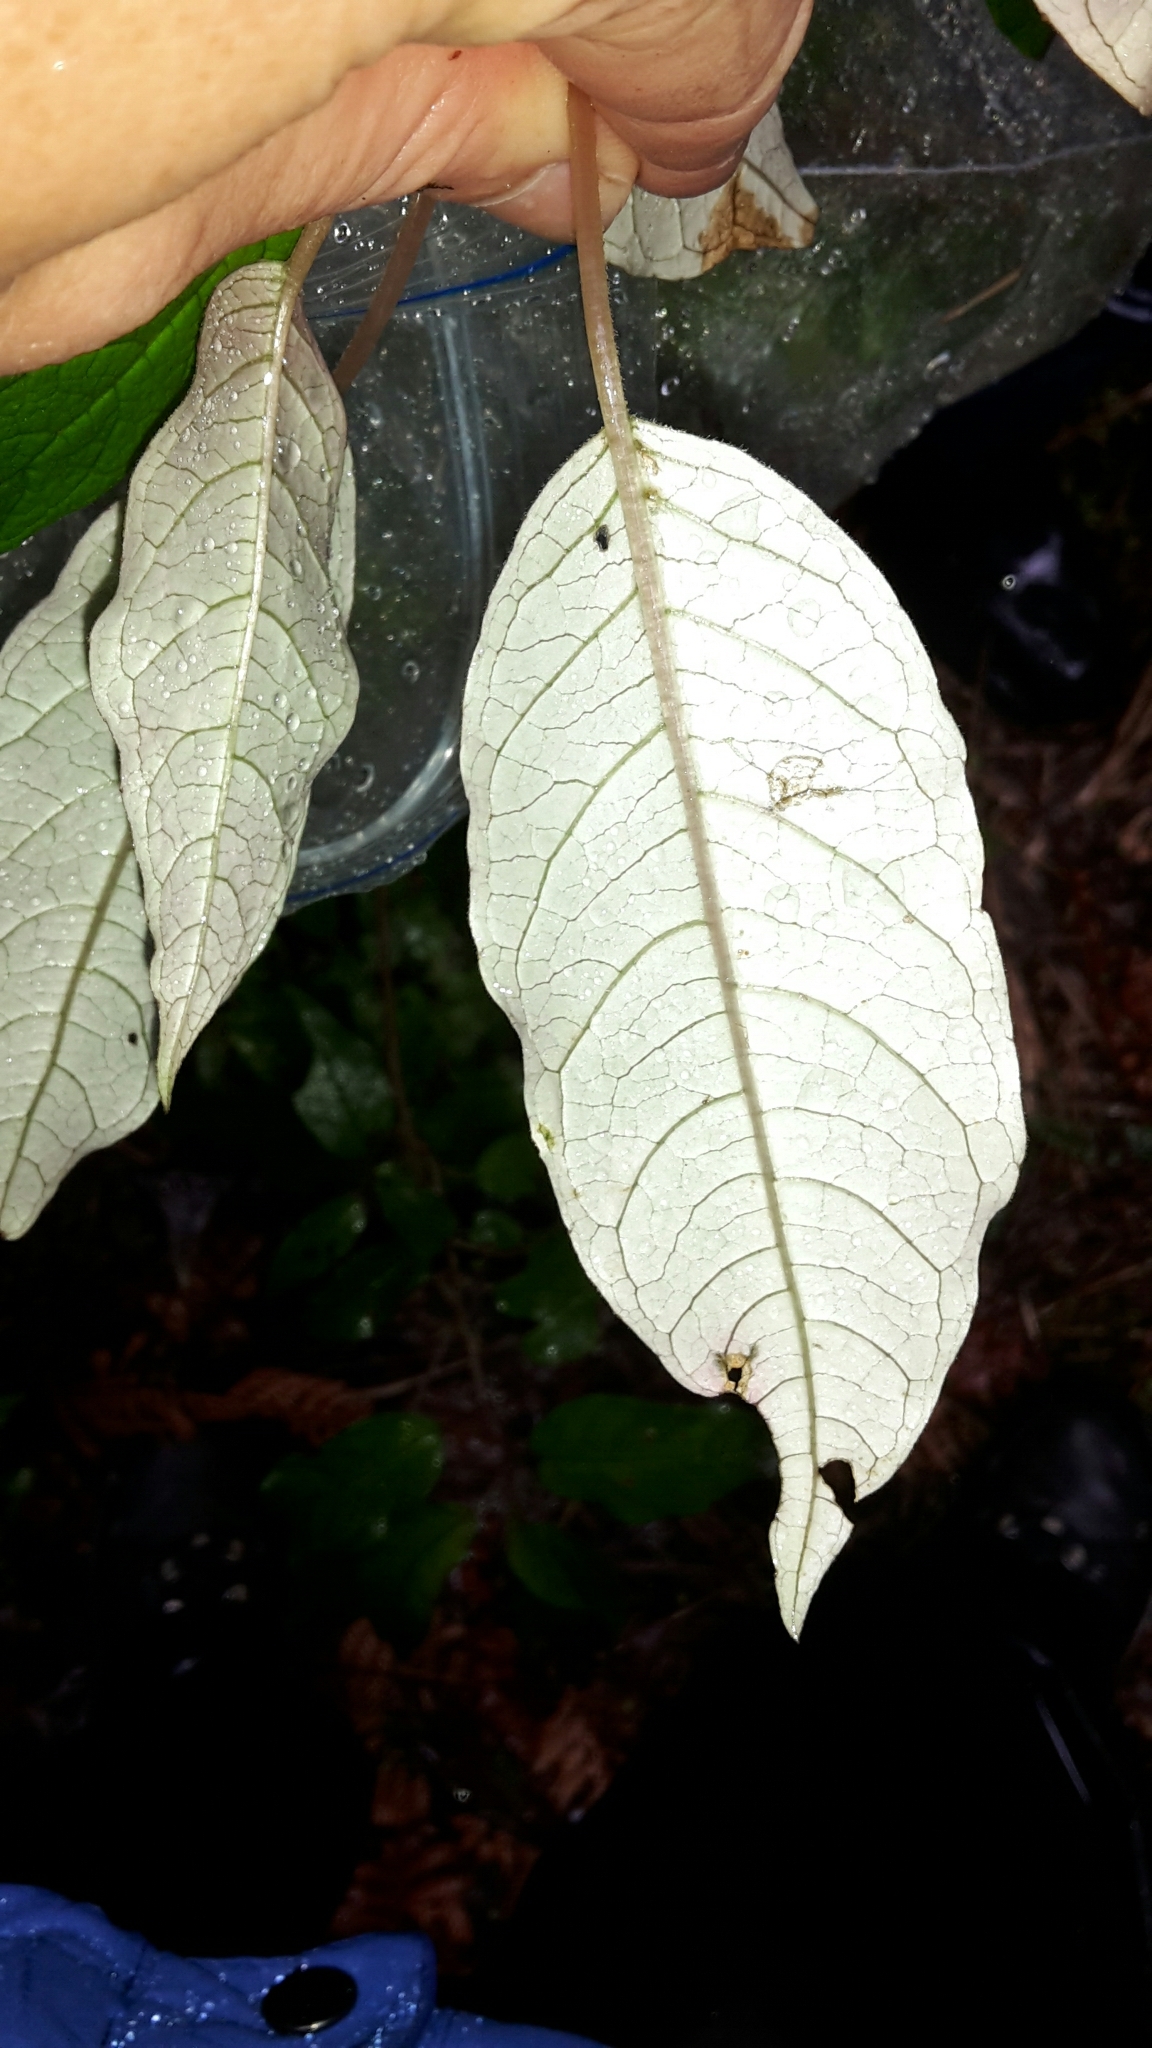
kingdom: Plantae
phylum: Tracheophyta
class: Magnoliopsida
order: Myrtales
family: Onagraceae
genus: Fuchsia
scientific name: Fuchsia excorticata
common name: Tree fuchsia
